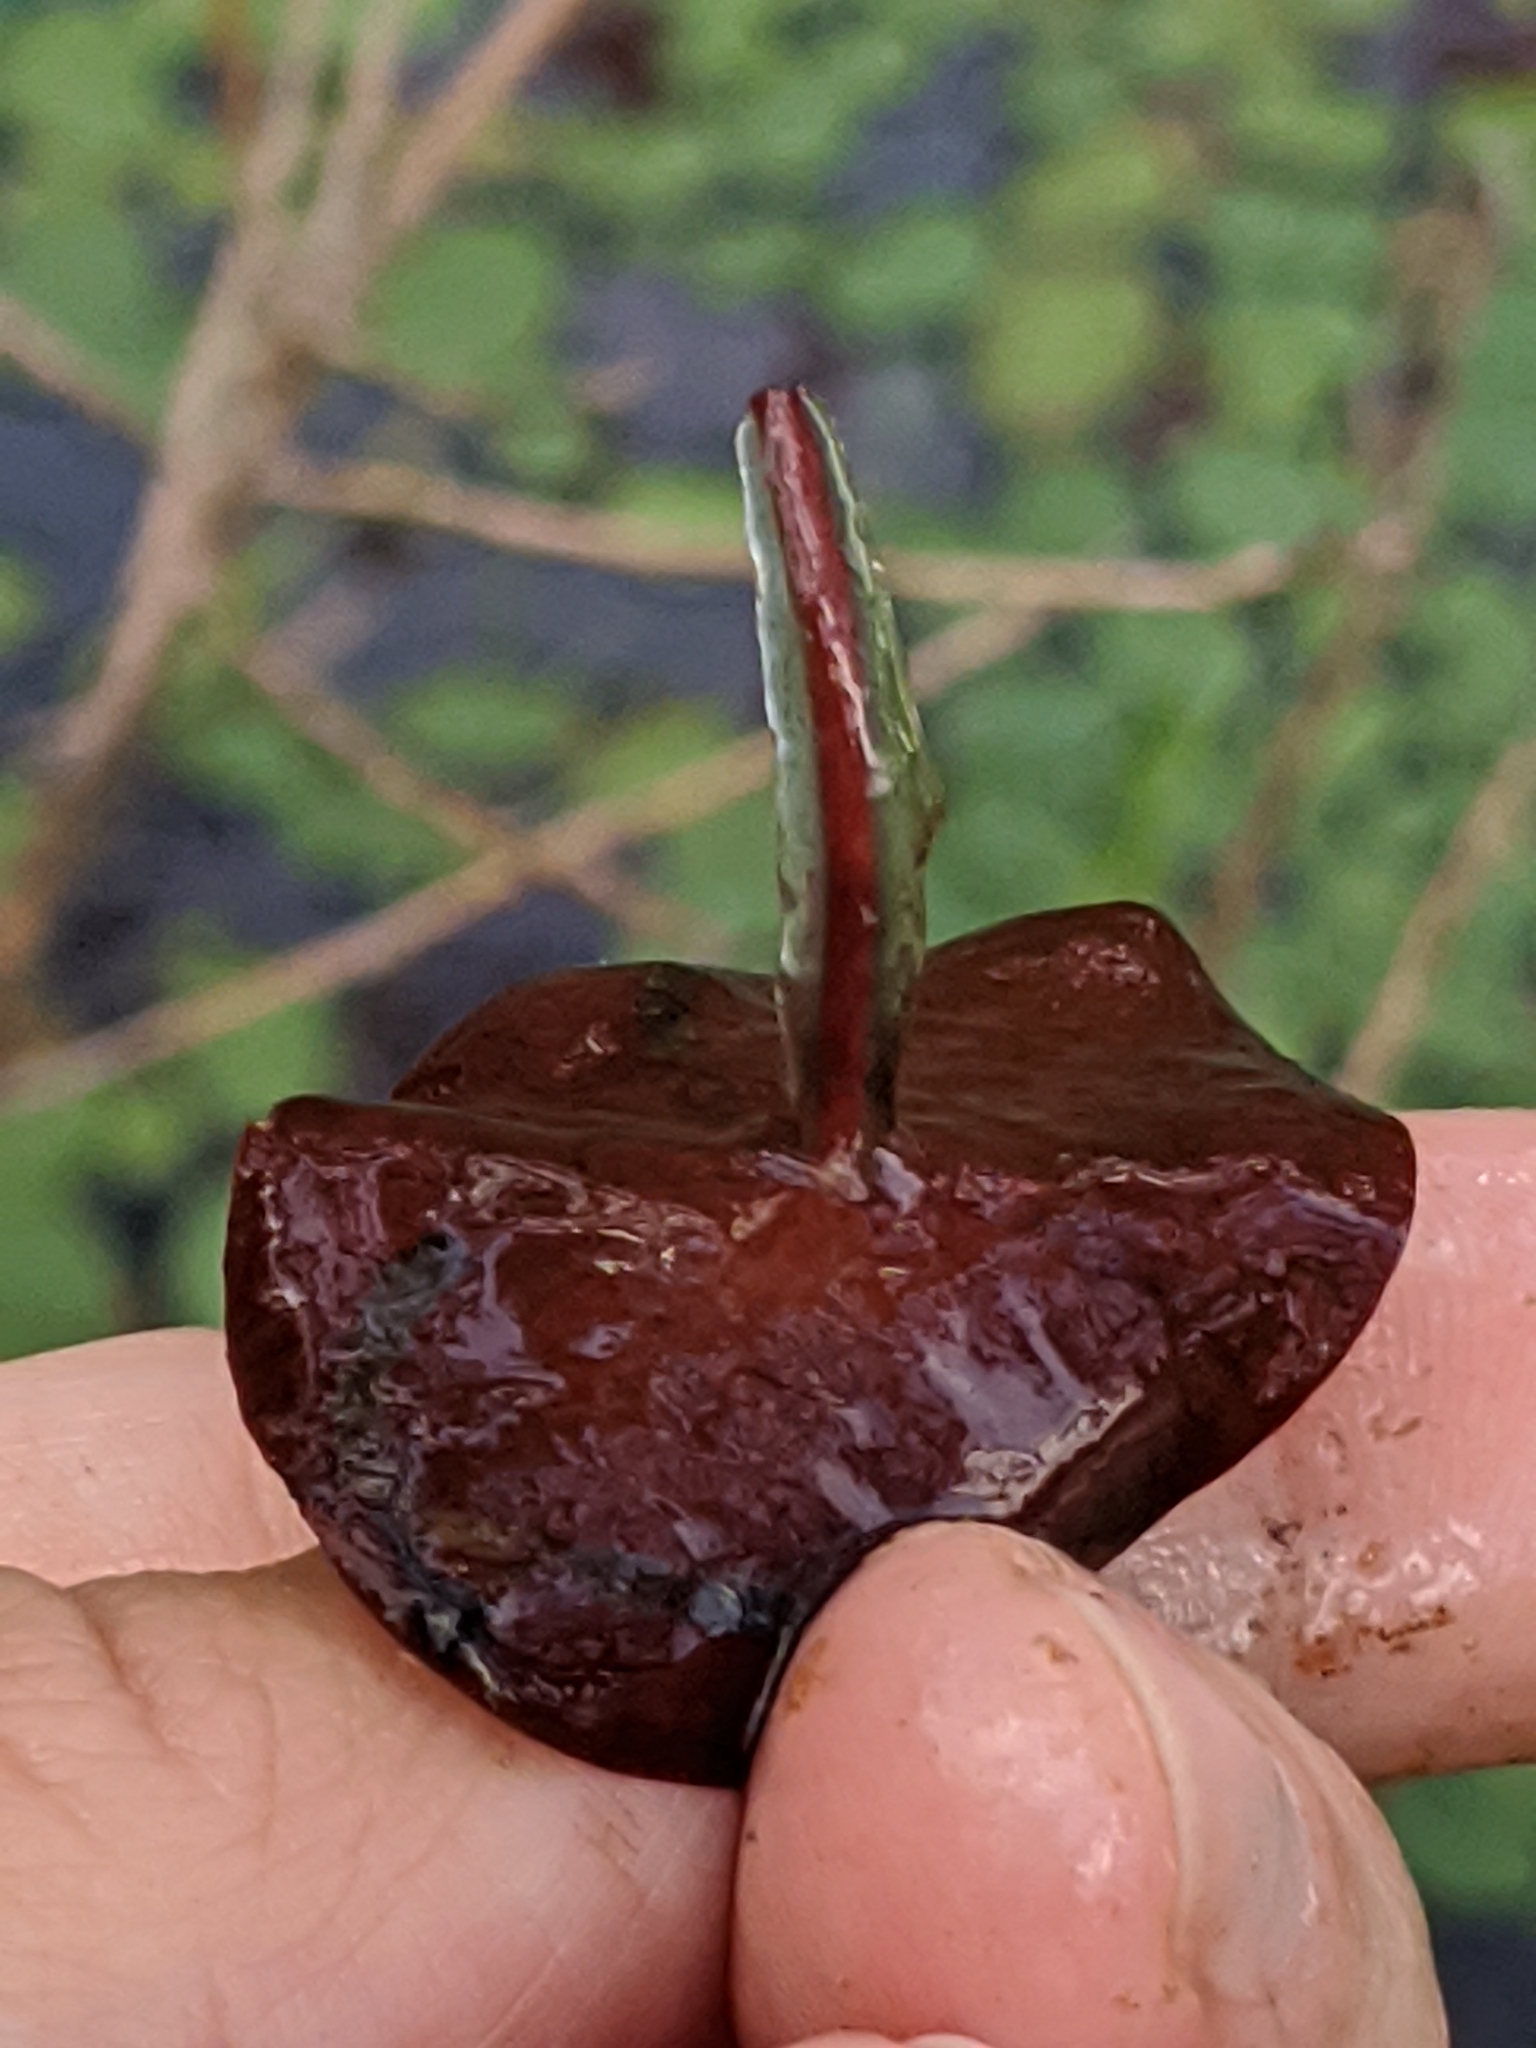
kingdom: Plantae
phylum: Tracheophyta
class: Magnoliopsida
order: Nymphaeales
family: Cabombaceae
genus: Brasenia
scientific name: Brasenia schreberi
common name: Water-shield
